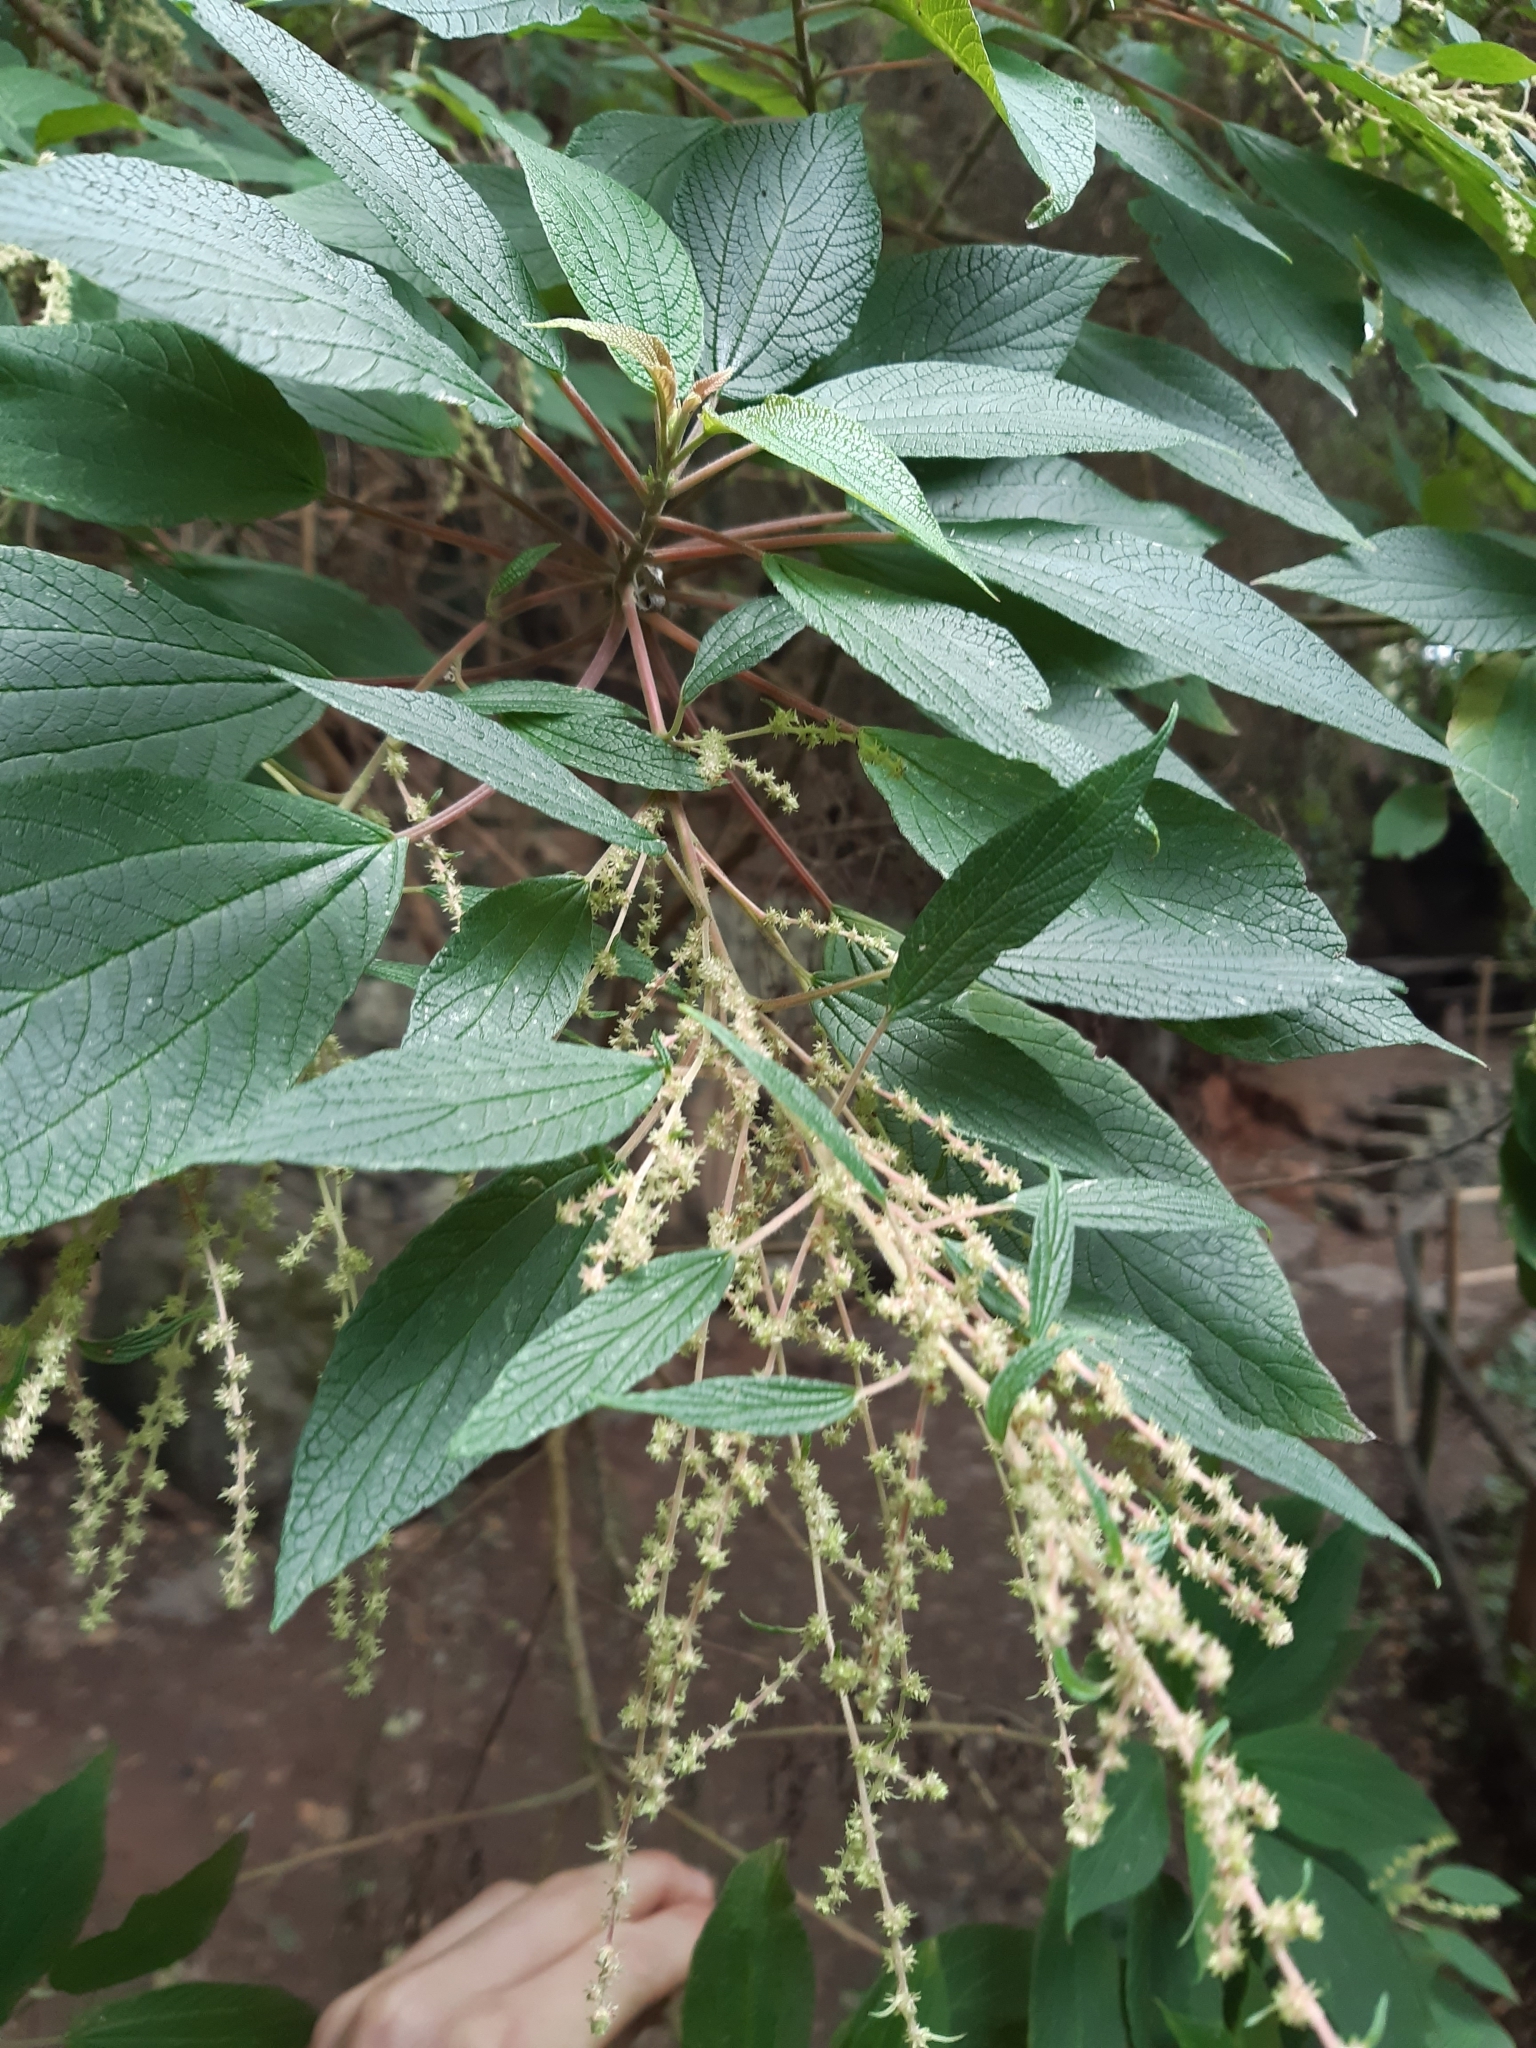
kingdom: Plantae
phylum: Tracheophyta
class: Magnoliopsida
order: Rosales
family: Urticaceae
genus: Gesnouinia
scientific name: Gesnouinia arborea
